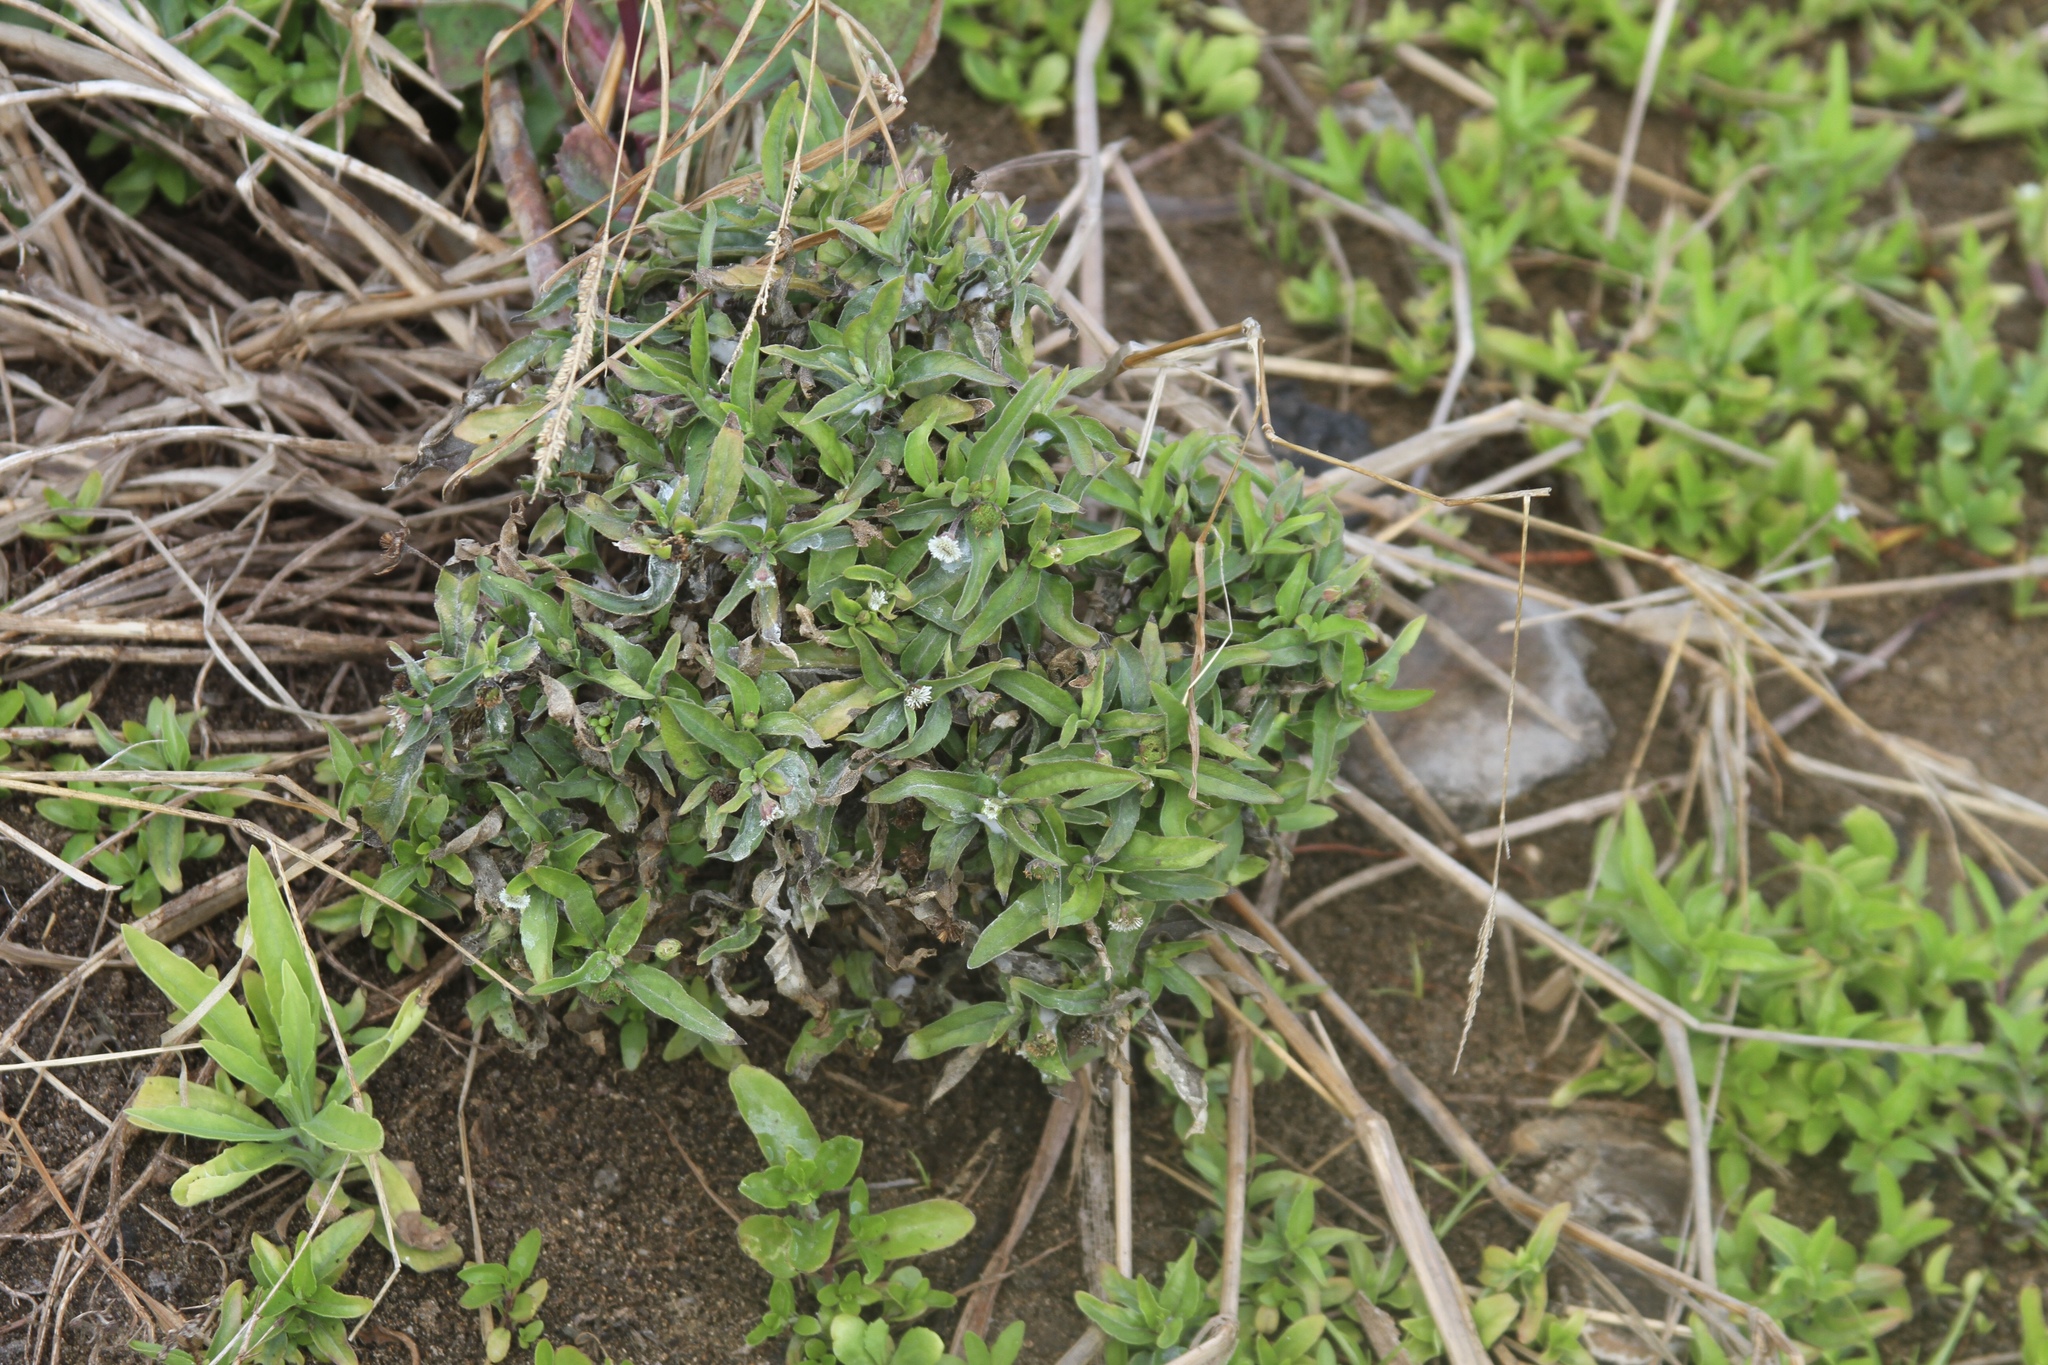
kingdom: Plantae
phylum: Tracheophyta
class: Magnoliopsida
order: Asterales
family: Asteraceae
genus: Eclipta
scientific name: Eclipta prostrata
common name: False daisy
